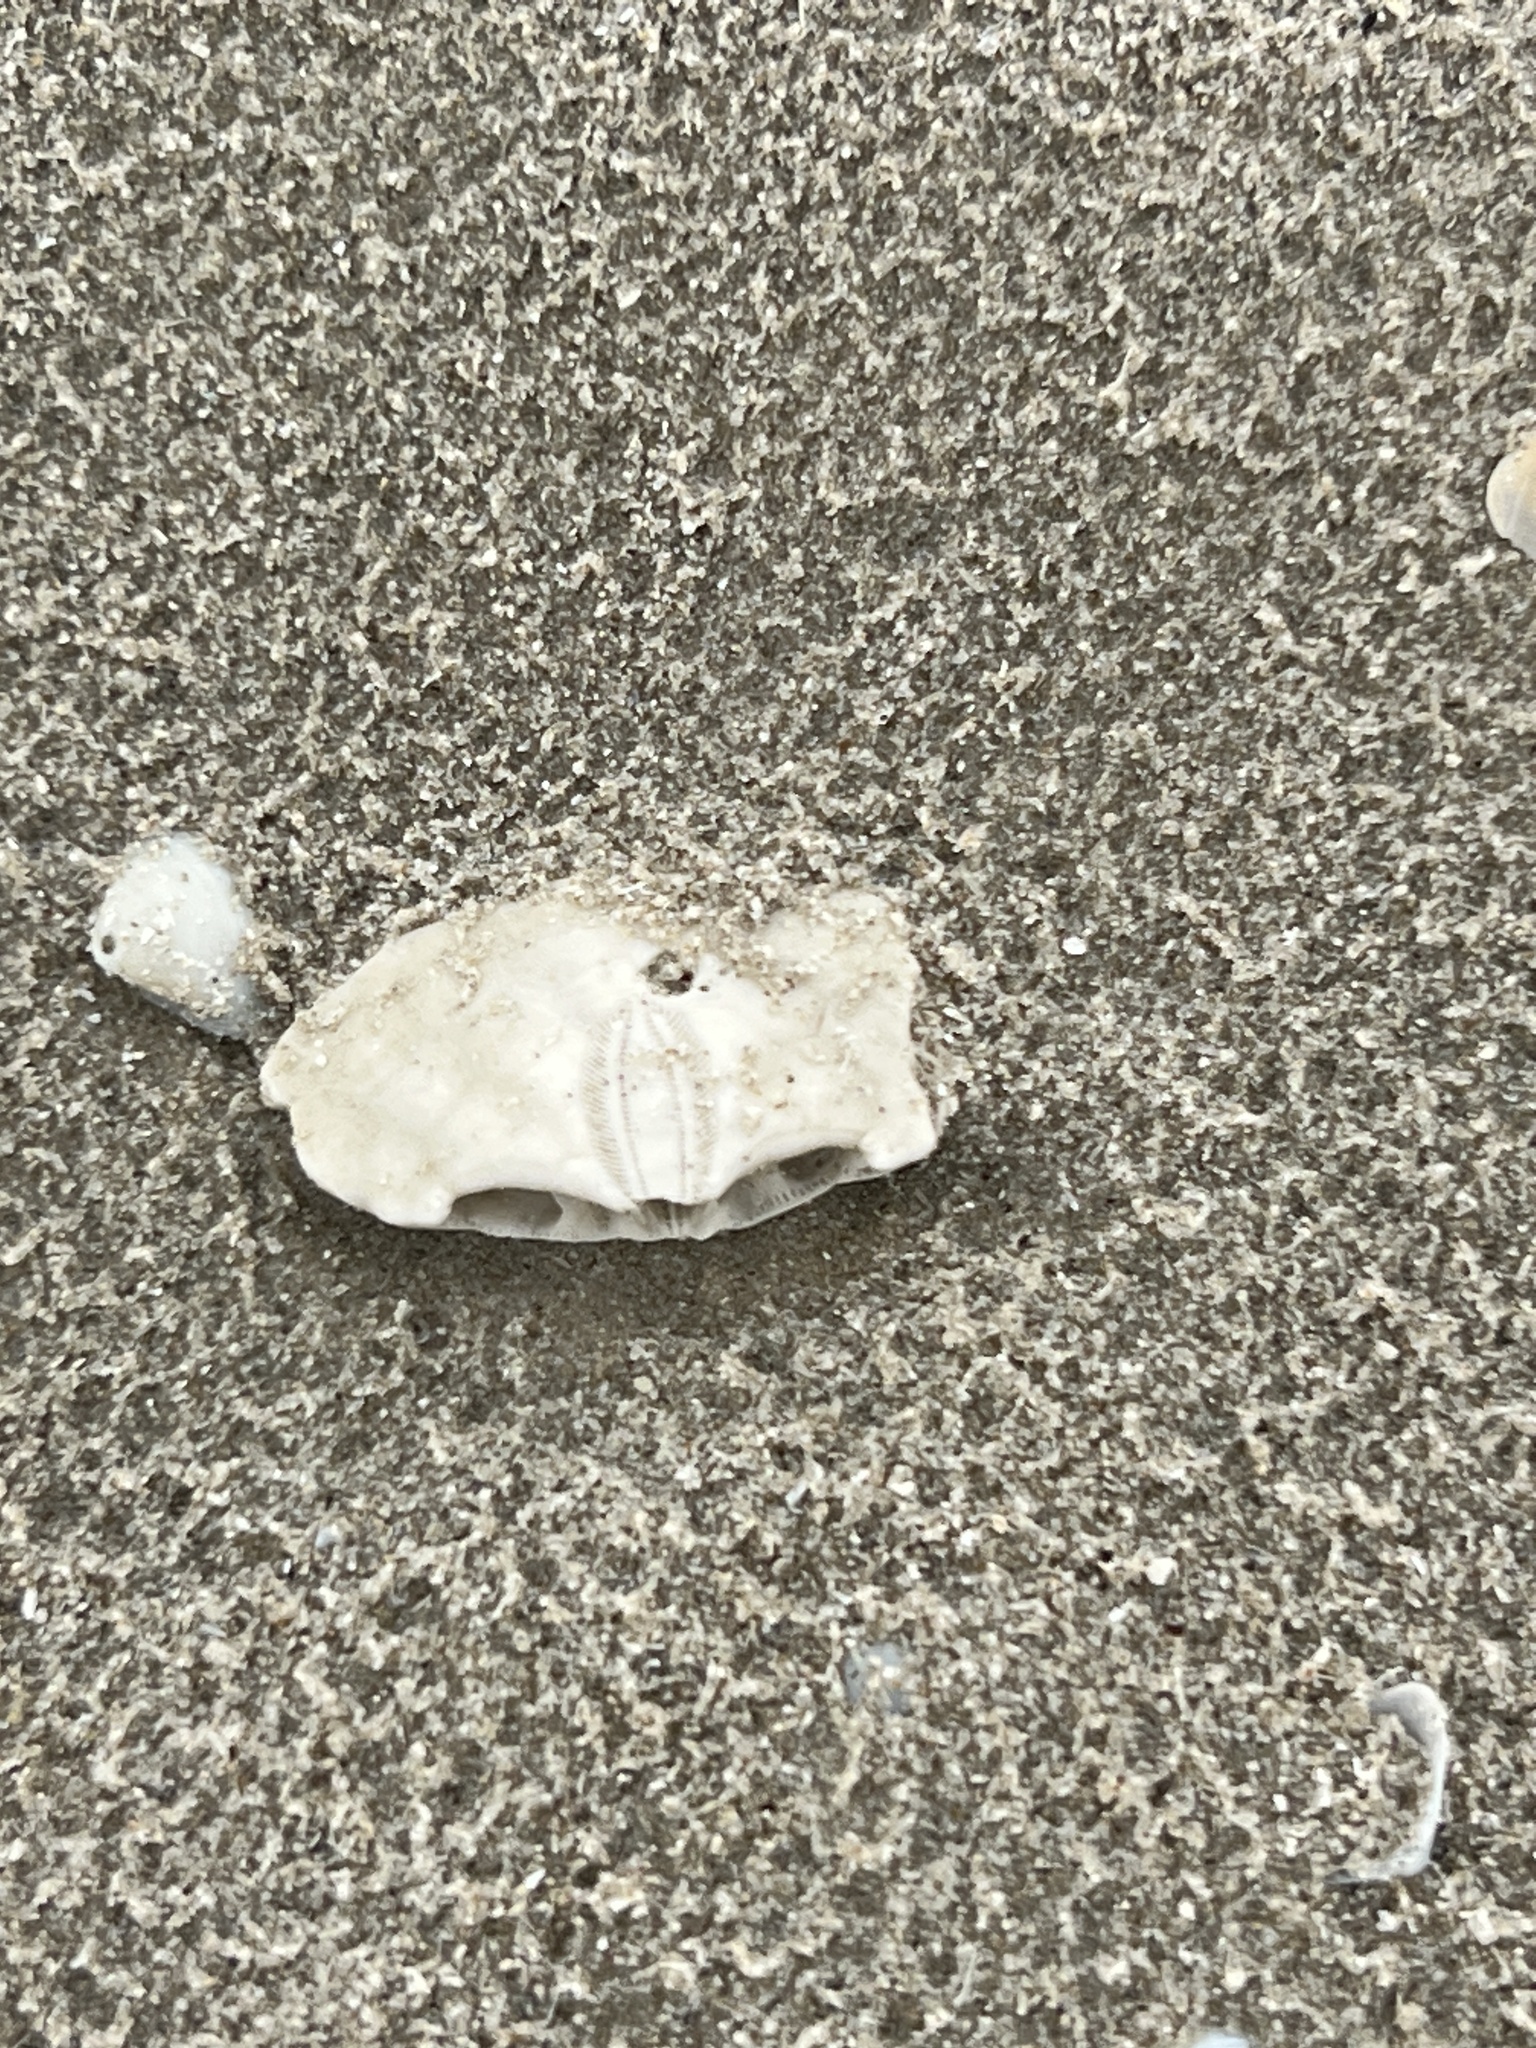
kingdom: Animalia
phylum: Echinodermata
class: Echinoidea
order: Echinolampadacea
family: Mellitidae
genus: Mellita
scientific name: Mellita quinquiesperforata
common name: Sand dollar
